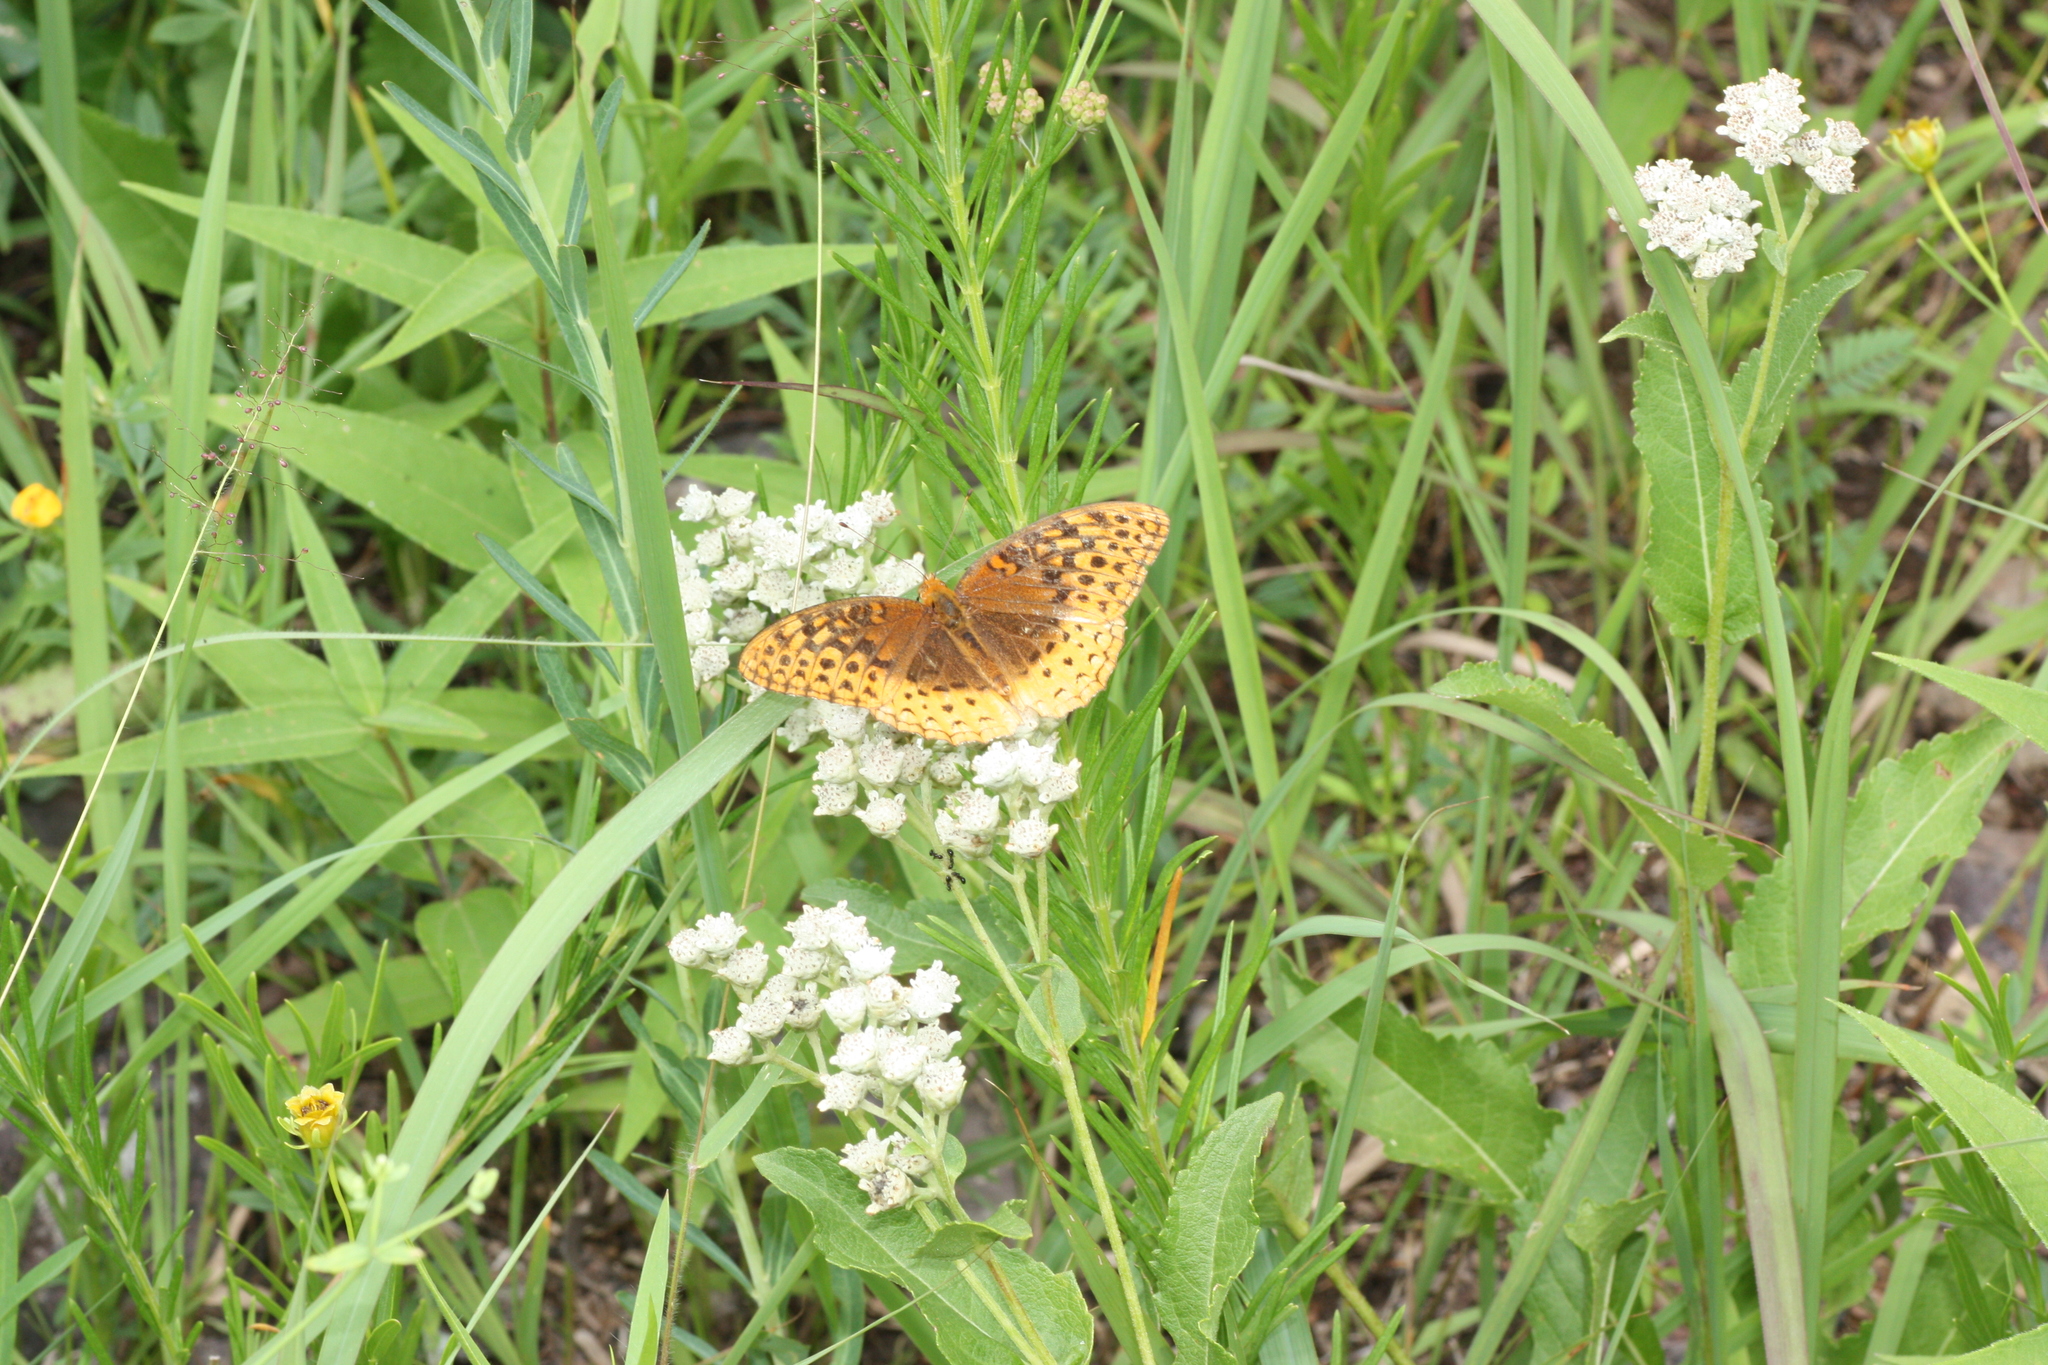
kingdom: Animalia
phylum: Arthropoda
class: Insecta
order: Lepidoptera
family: Nymphalidae
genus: Speyeria
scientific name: Speyeria cybele
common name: Great spangled fritillary
